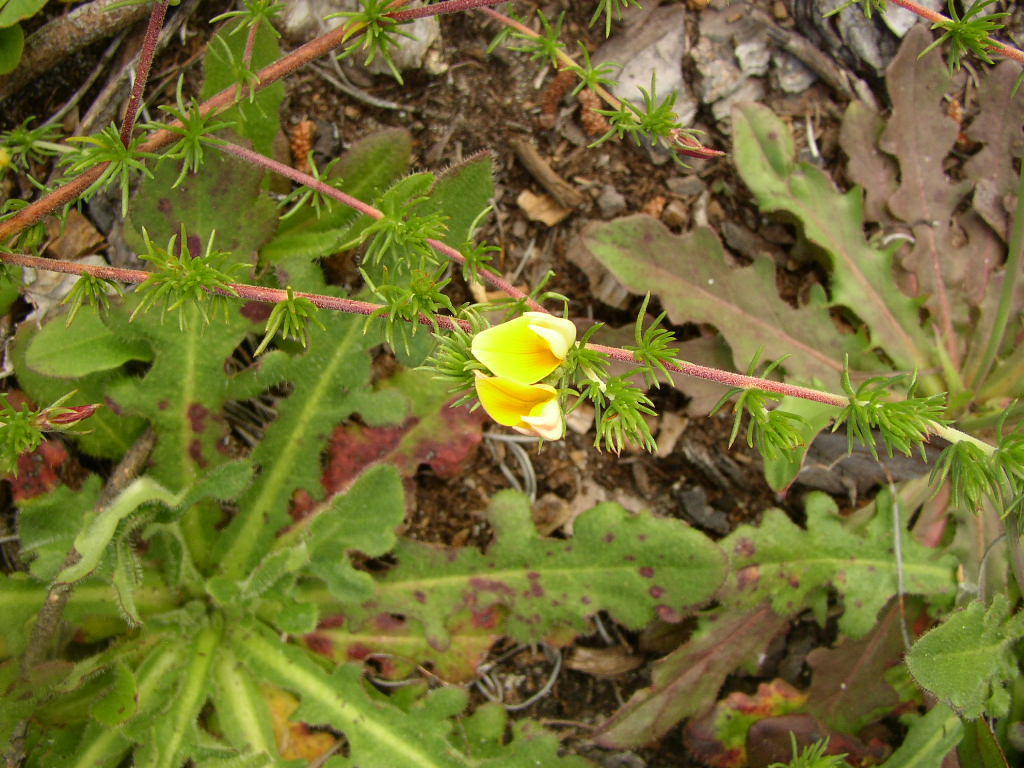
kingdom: Plantae
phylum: Tracheophyta
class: Magnoliopsida
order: Fabales
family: Fabaceae
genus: Aspalathus
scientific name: Aspalathus retroflexa
